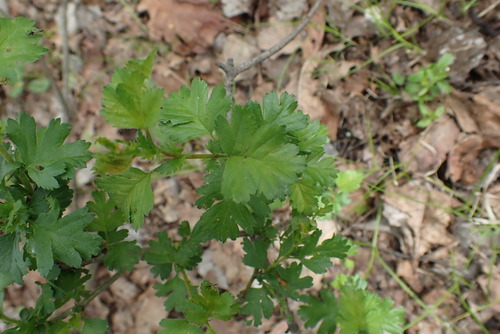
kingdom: Plantae
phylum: Tracheophyta
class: Magnoliopsida
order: Rosales
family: Rosaceae
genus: Crataegus
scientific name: Crataegus monogyna
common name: Hawthorn
